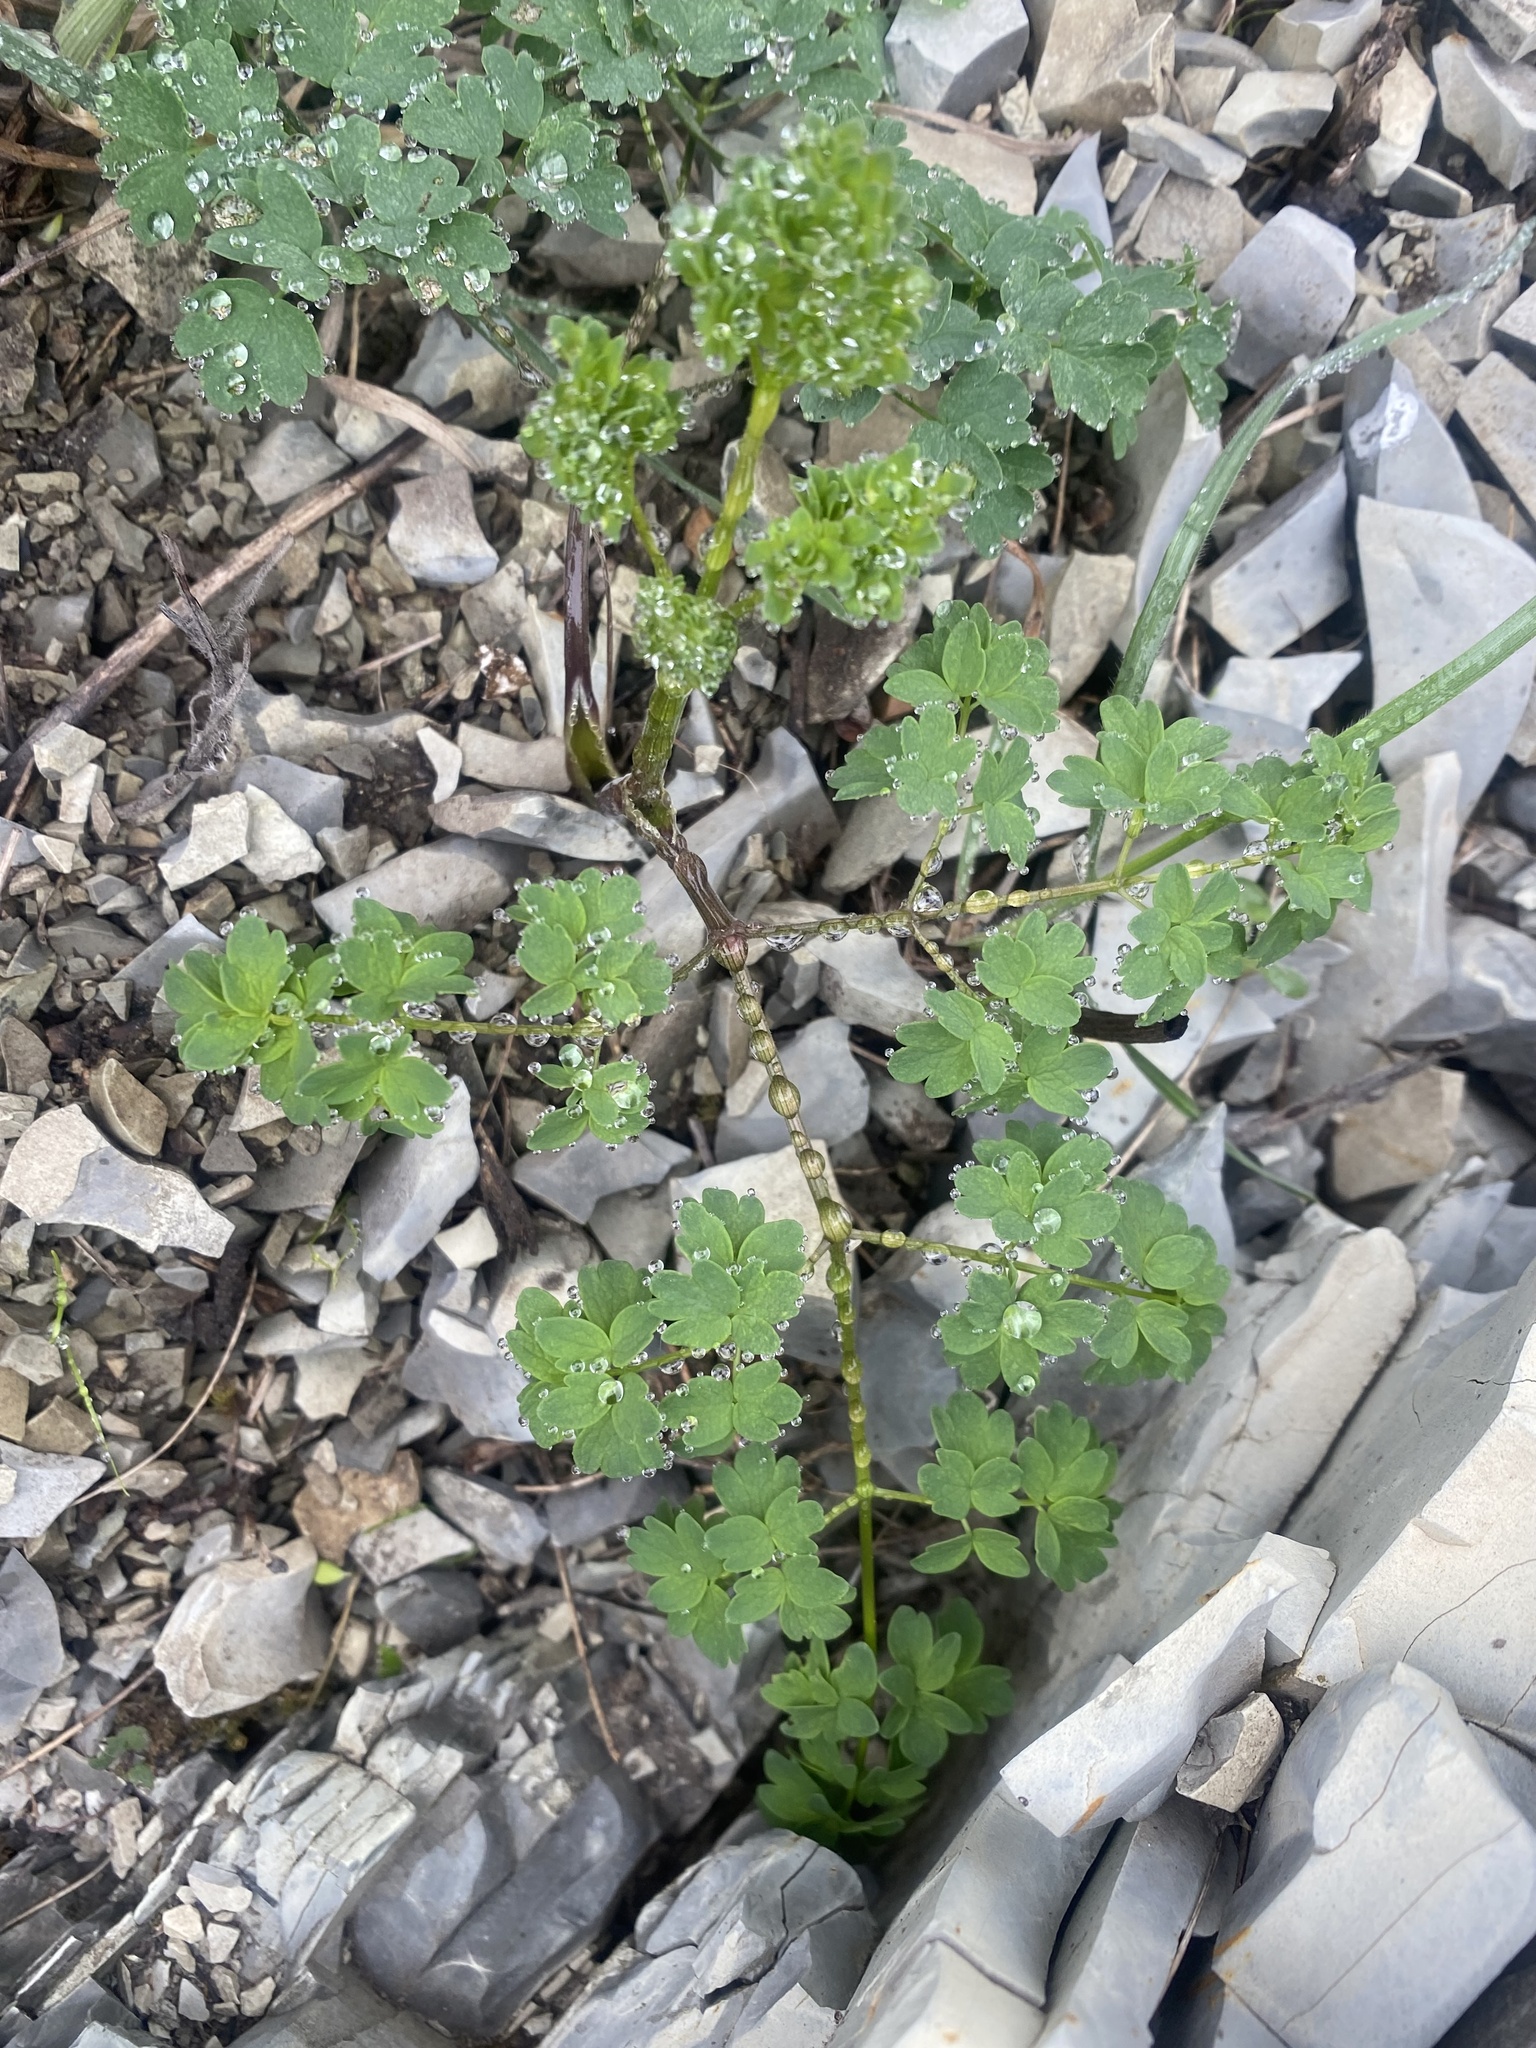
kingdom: Plantae
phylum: Tracheophyta
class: Magnoliopsida
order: Ranunculales
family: Ranunculaceae
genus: Thalictrum
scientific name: Thalictrum minus
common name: Lesser meadow-rue
